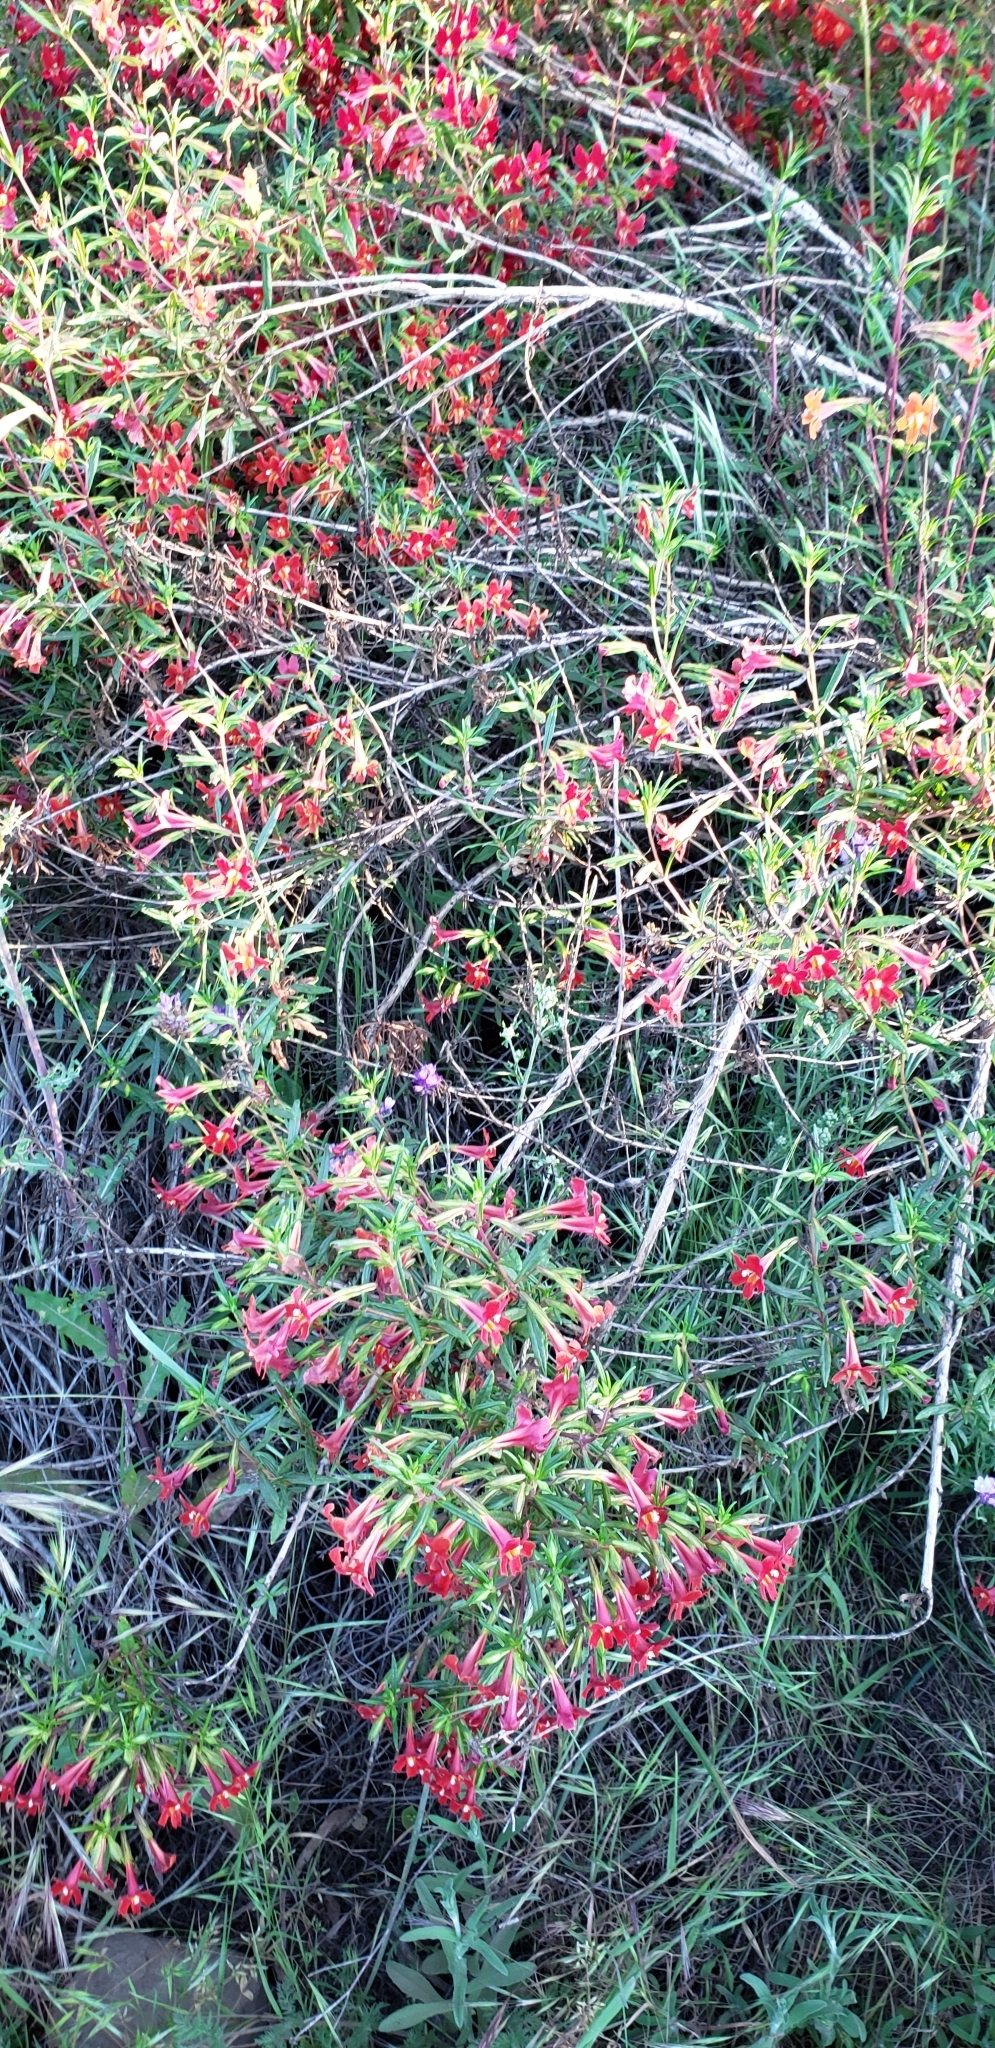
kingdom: Plantae
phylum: Tracheophyta
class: Magnoliopsida
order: Lamiales
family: Phrymaceae
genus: Diplacus
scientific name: Diplacus puniceus
